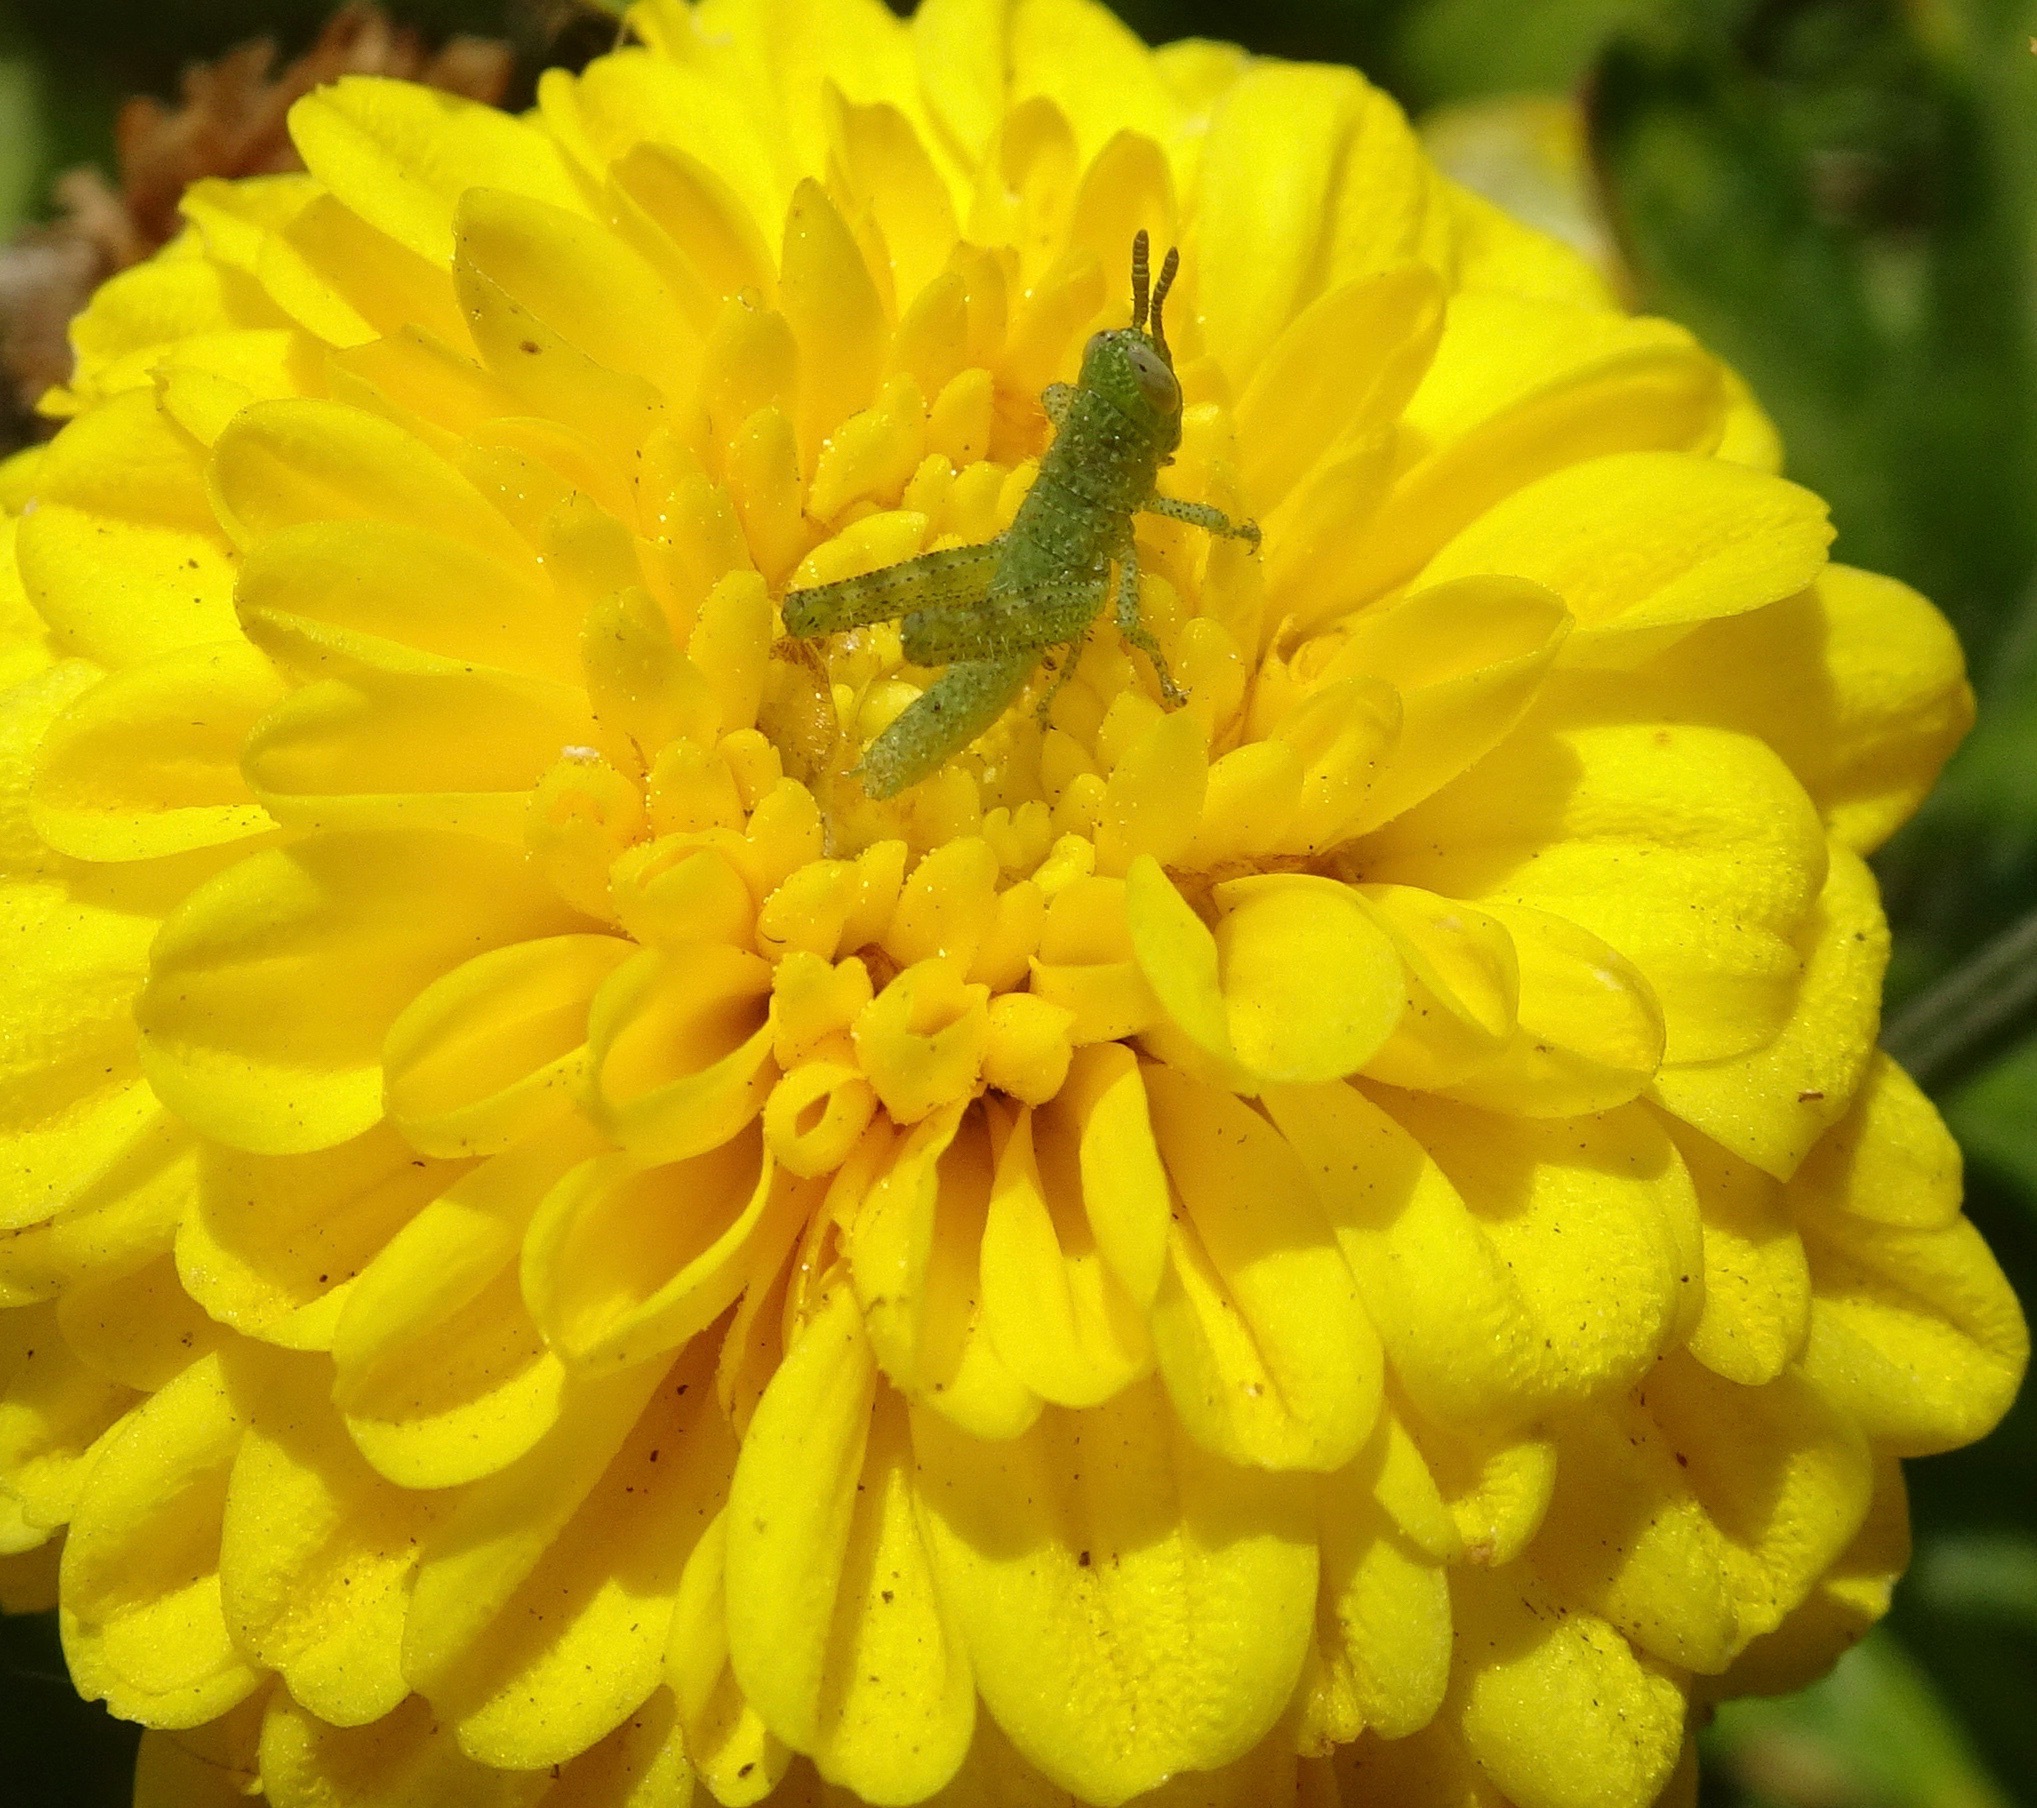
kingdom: Animalia
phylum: Arthropoda
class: Insecta
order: Orthoptera
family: Acrididae
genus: Schistocerca
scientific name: Schistocerca nitens
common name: Vagrant grasshopper
